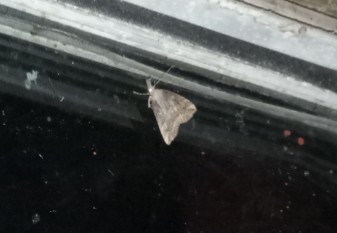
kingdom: Animalia
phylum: Arthropoda
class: Insecta
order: Lepidoptera
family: Erebidae
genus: Hypena
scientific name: Hypena rostralis
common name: Buttoned snout
